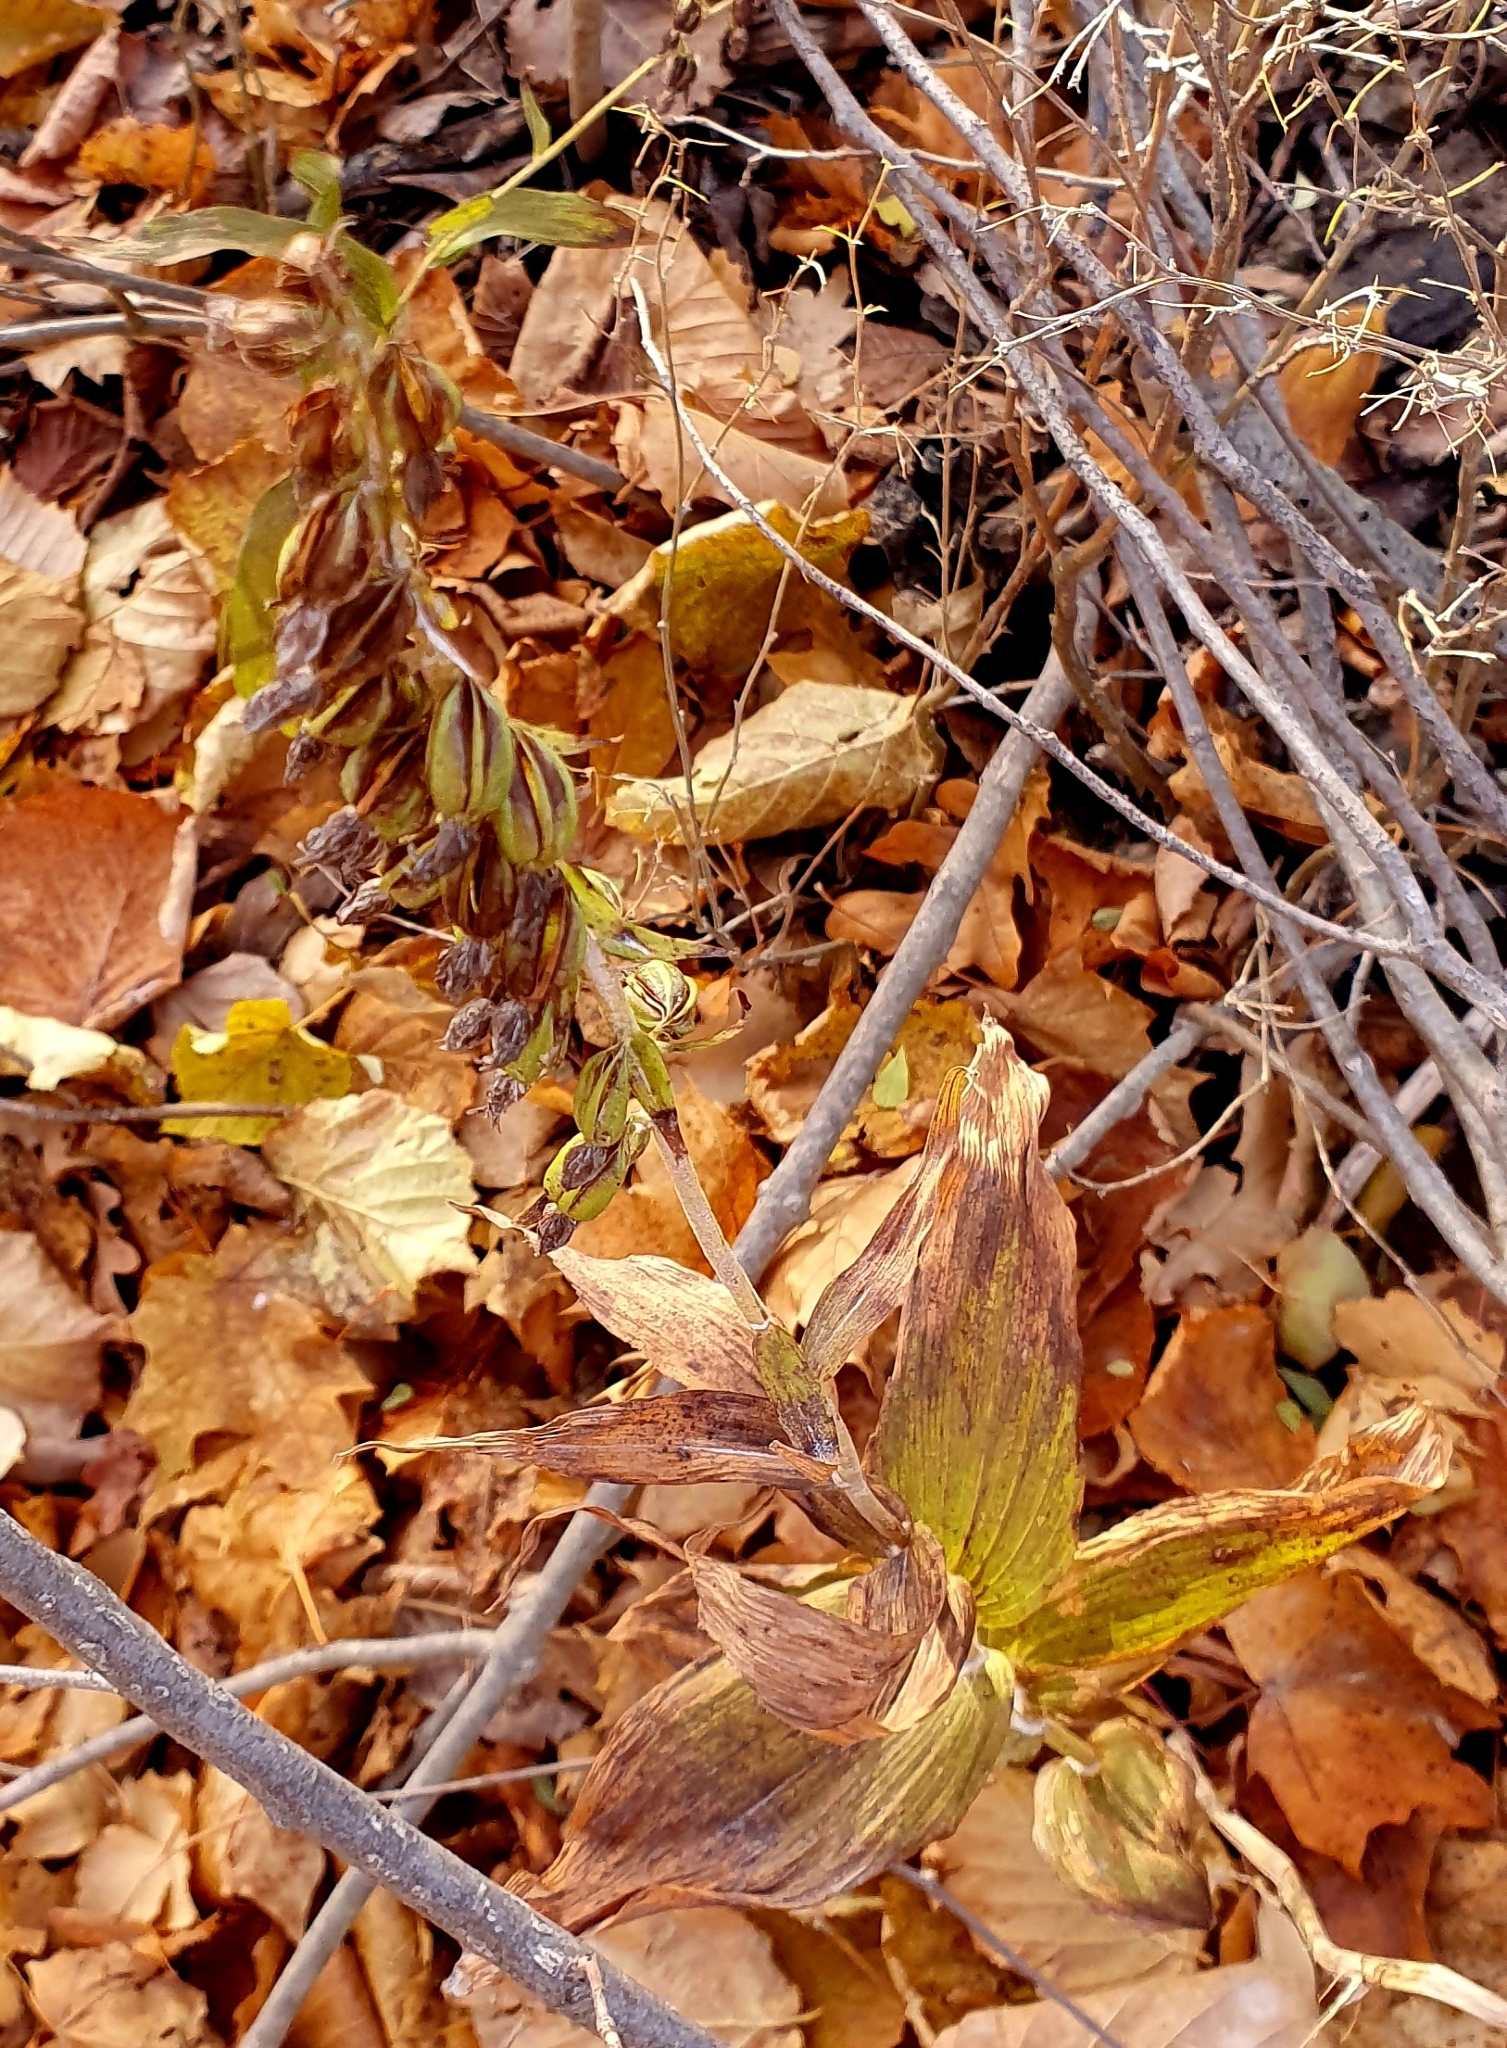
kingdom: Plantae
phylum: Tracheophyta
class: Liliopsida
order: Asparagales
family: Orchidaceae
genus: Epipactis
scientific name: Epipactis helleborine
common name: Broad-leaved helleborine
